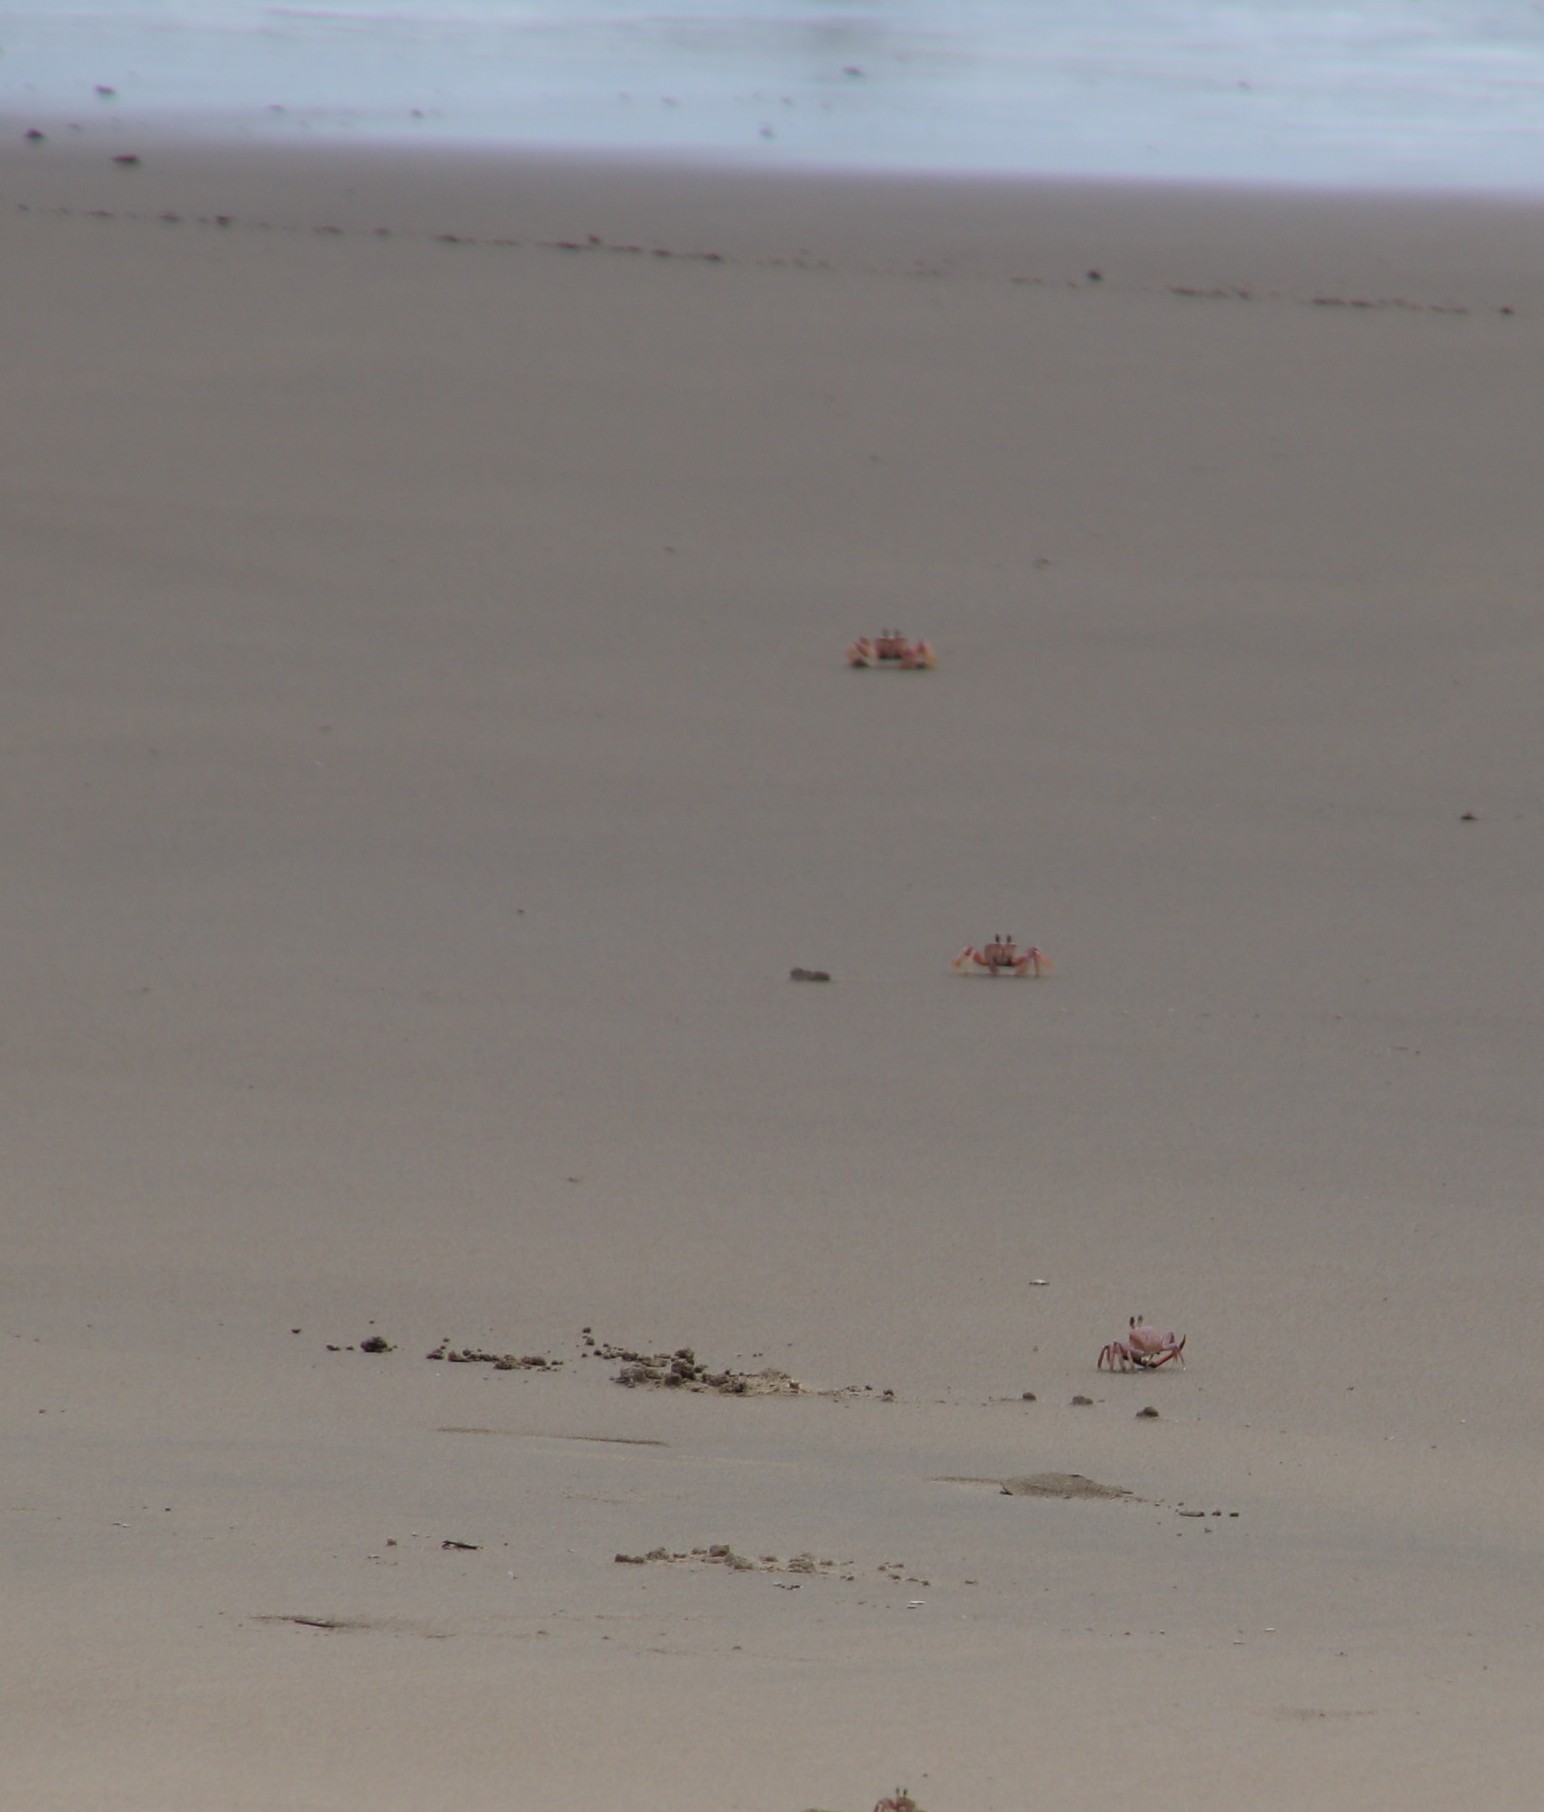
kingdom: Animalia
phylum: Arthropoda
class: Malacostraca
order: Decapoda
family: Ocypodidae
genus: Ocypode
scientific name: Ocypode ryderi
